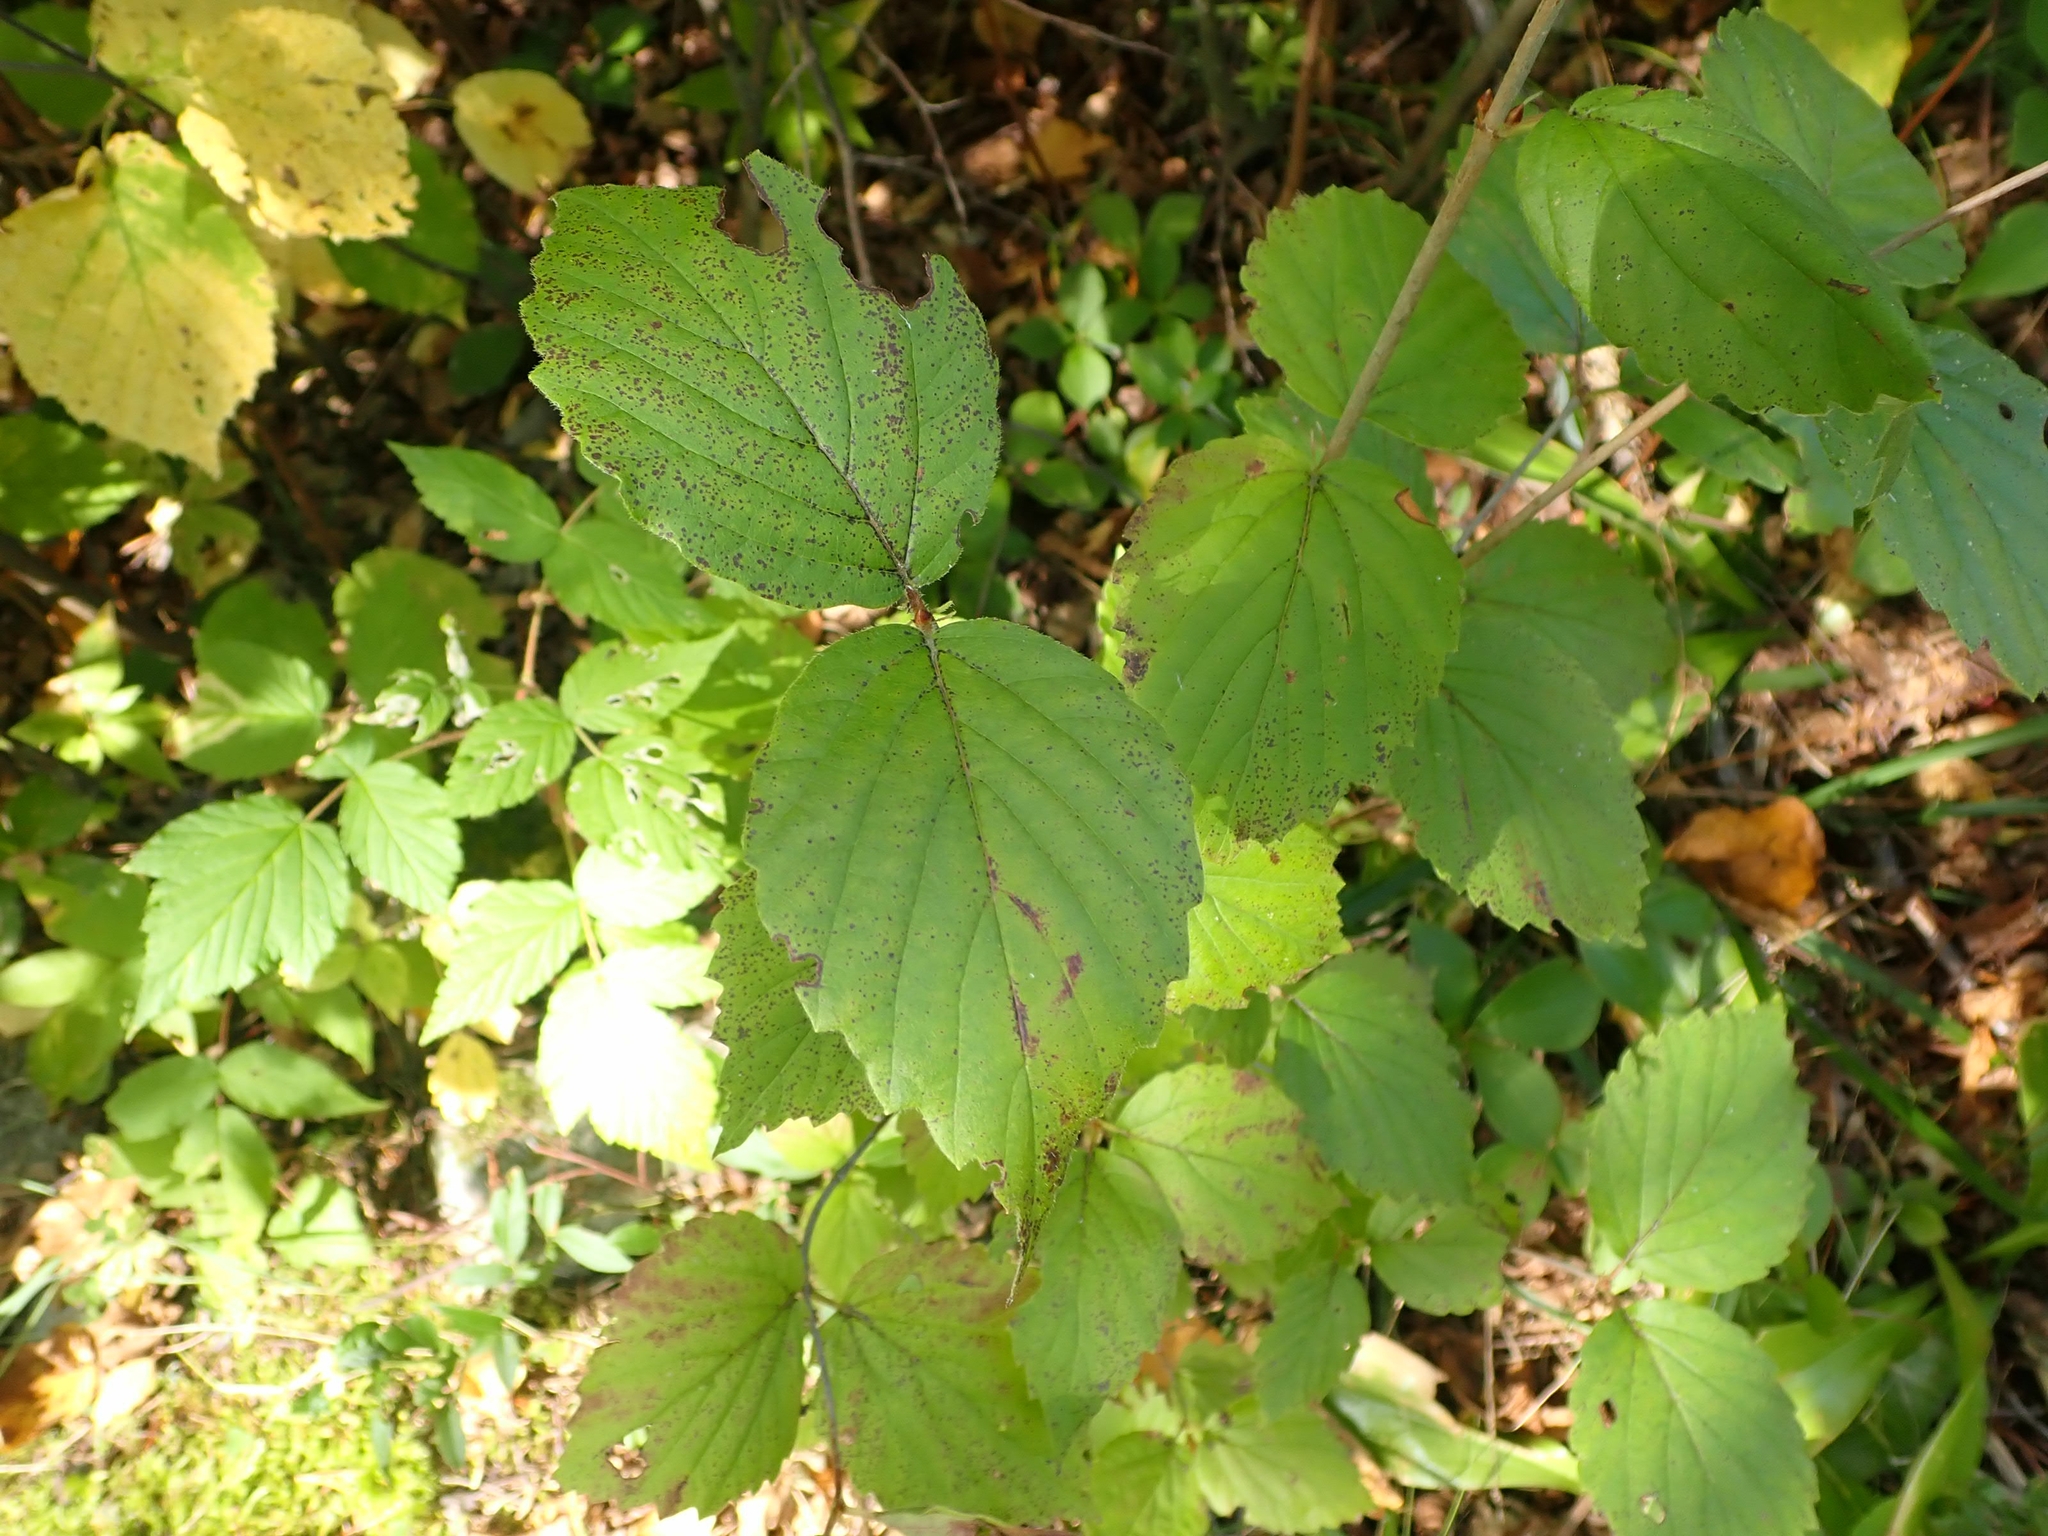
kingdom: Plantae
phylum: Tracheophyta
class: Magnoliopsida
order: Dipsacales
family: Viburnaceae
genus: Viburnum
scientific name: Viburnum rafinesqueanum
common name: Downy arrow-wood
